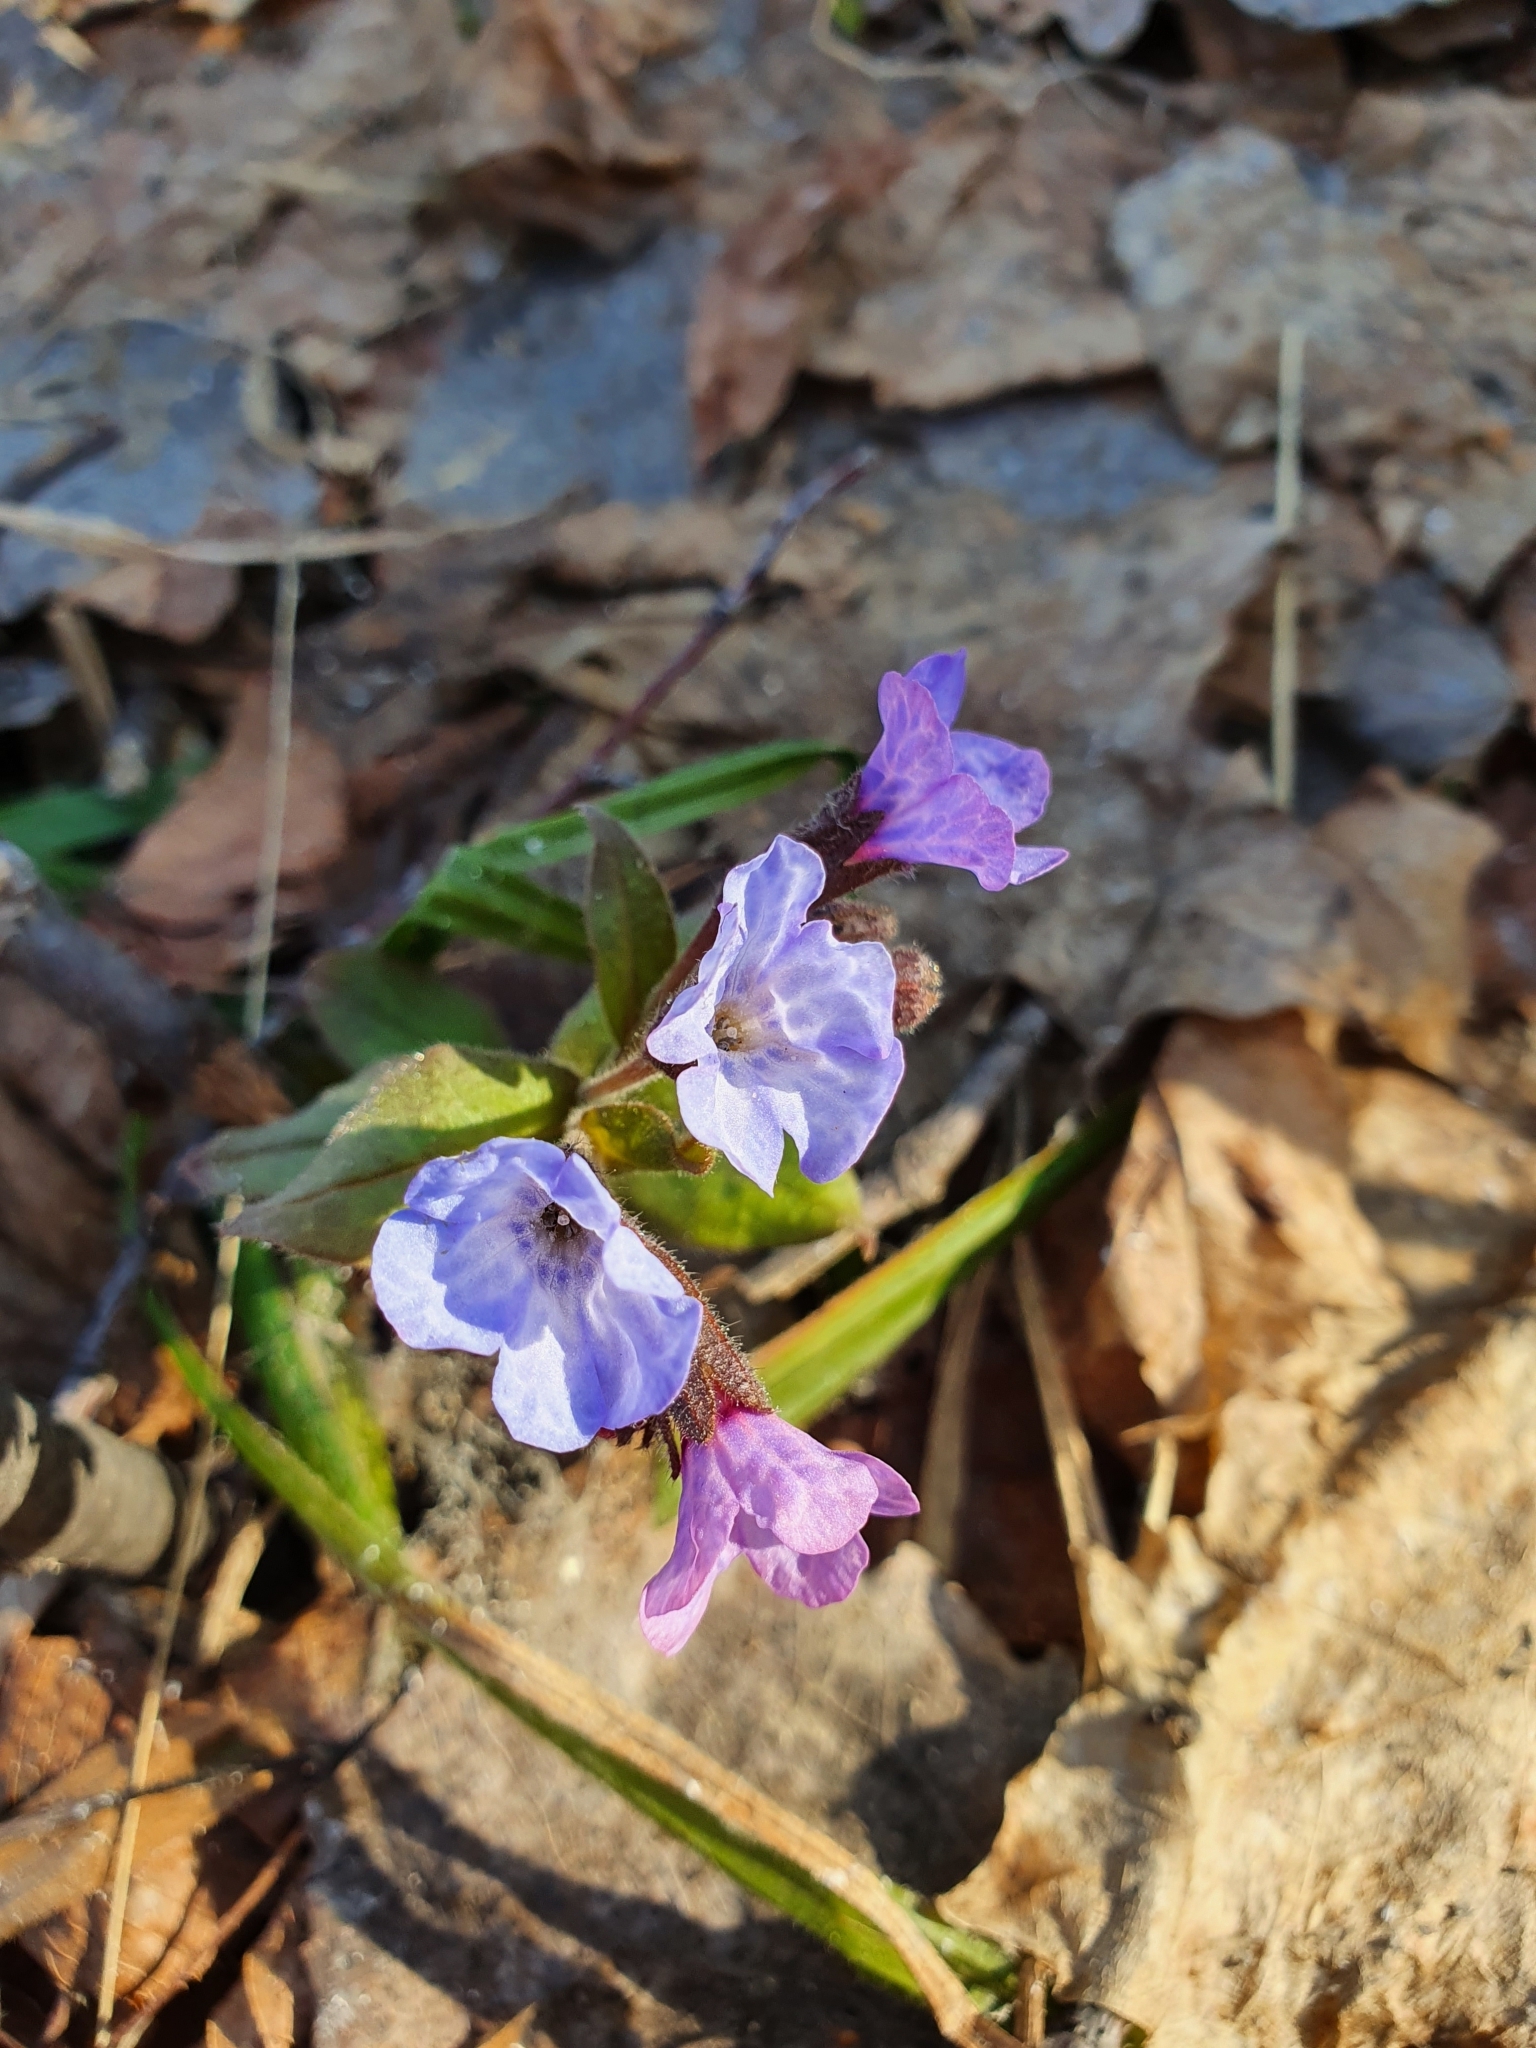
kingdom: Plantae
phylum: Tracheophyta
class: Magnoliopsida
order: Boraginales
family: Boraginaceae
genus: Pulmonaria
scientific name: Pulmonaria obscura
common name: Suffolk lungwort
